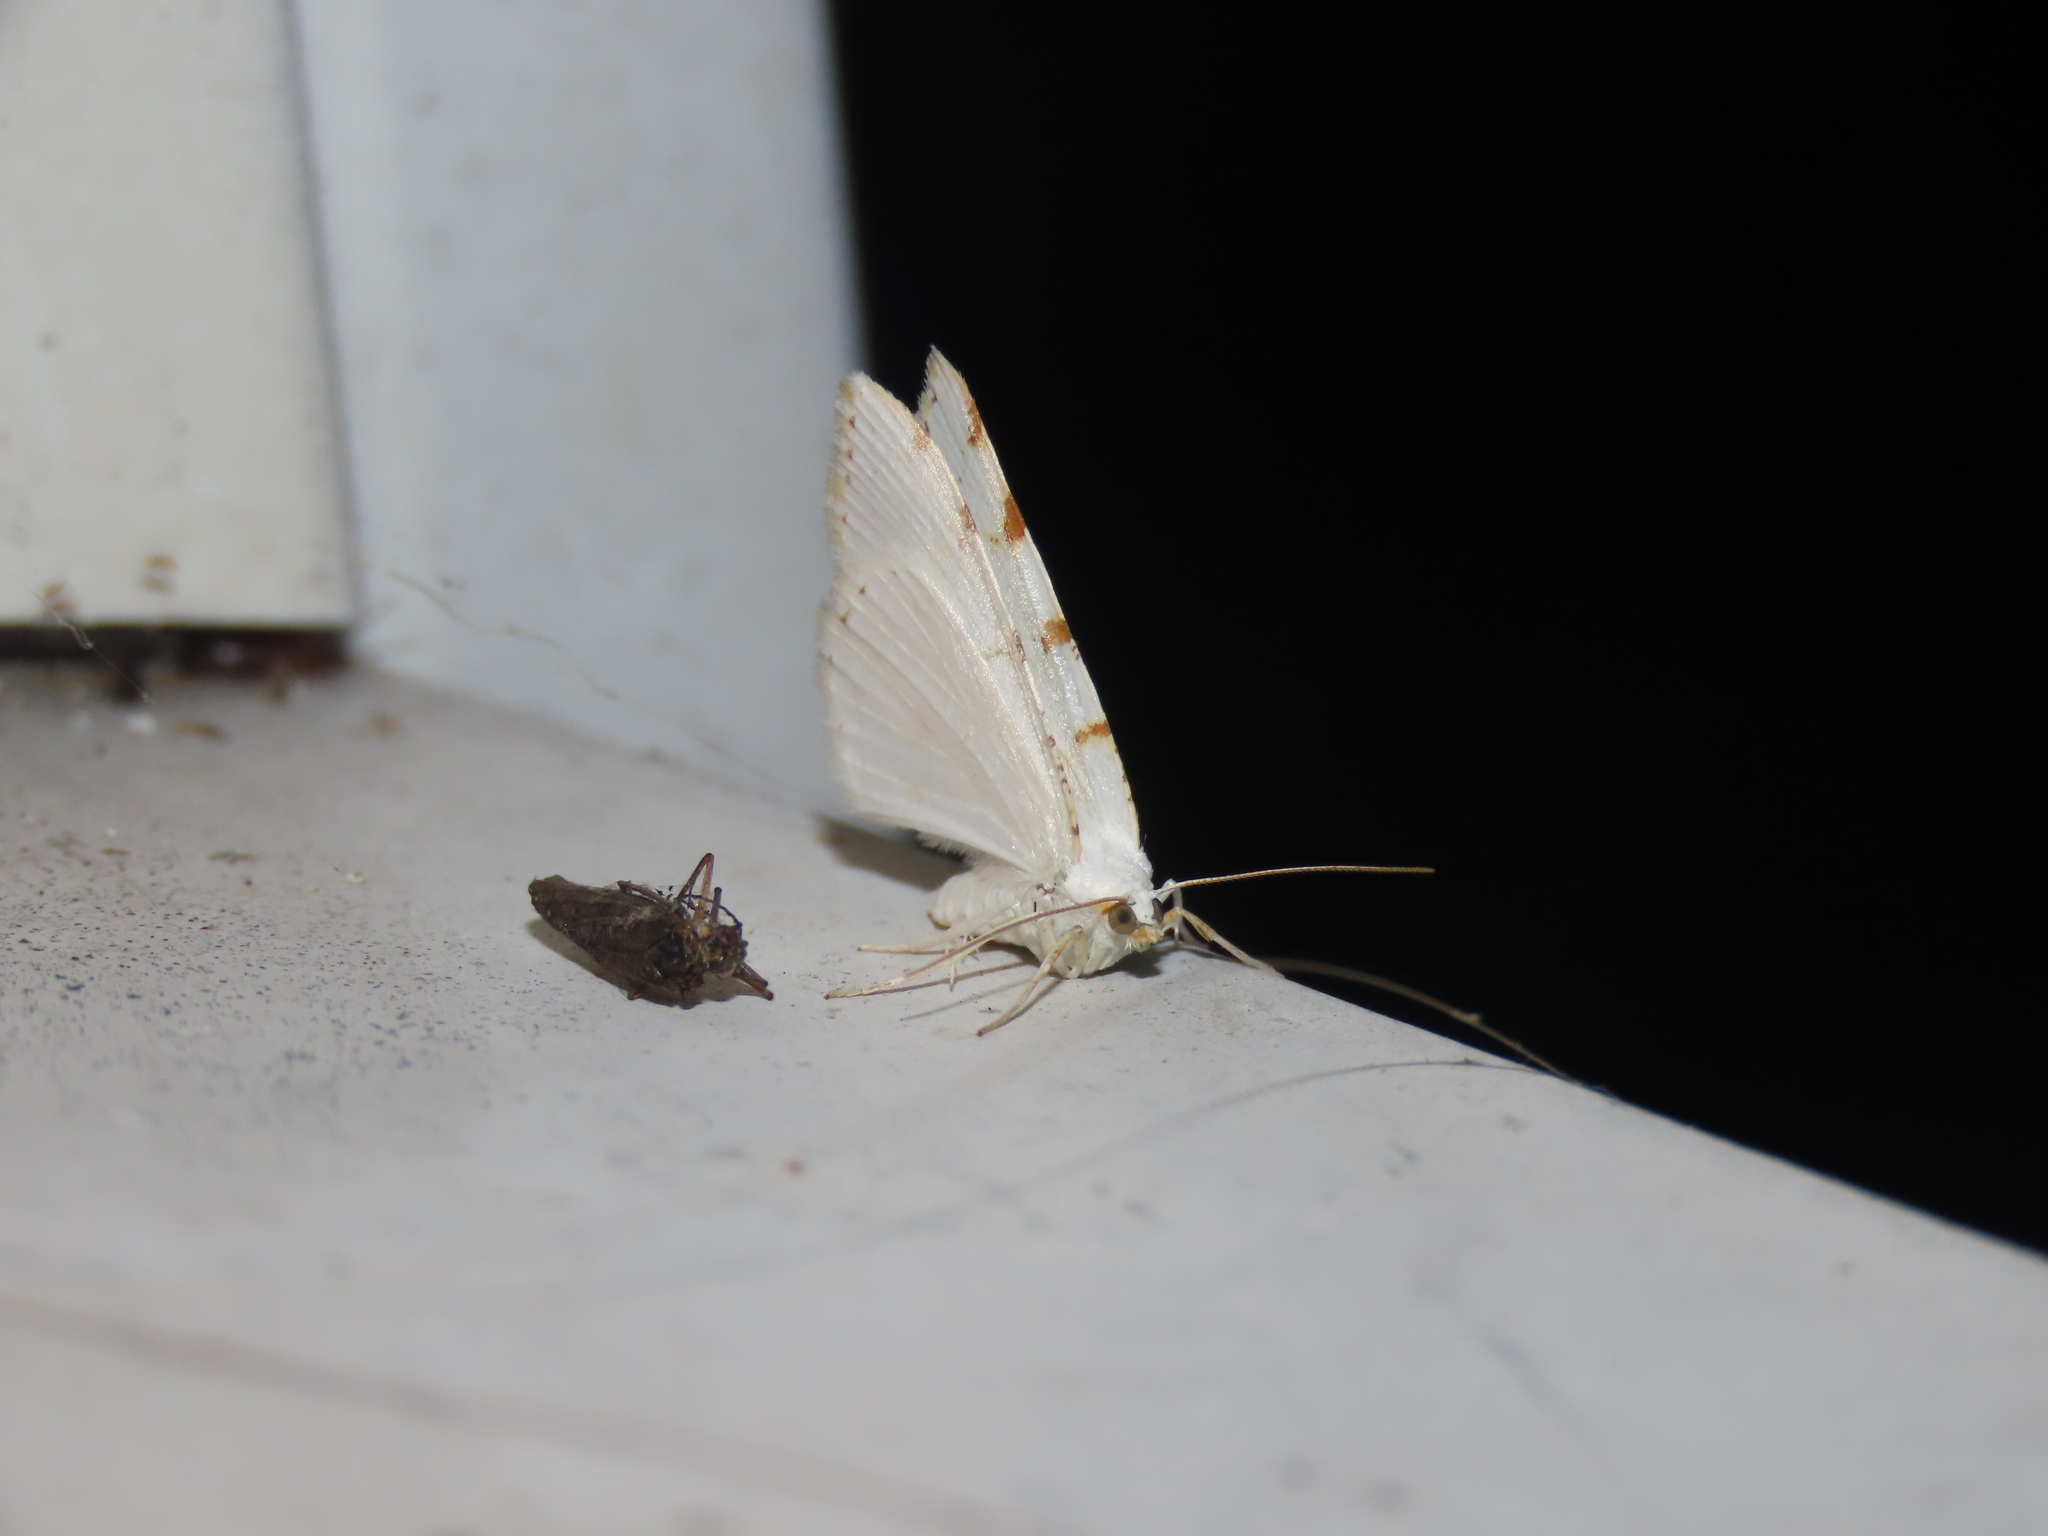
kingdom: Animalia
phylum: Arthropoda
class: Insecta
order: Lepidoptera
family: Geometridae
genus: Macaria
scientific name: Macaria pustularia
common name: Lesser maple spanworm moth
